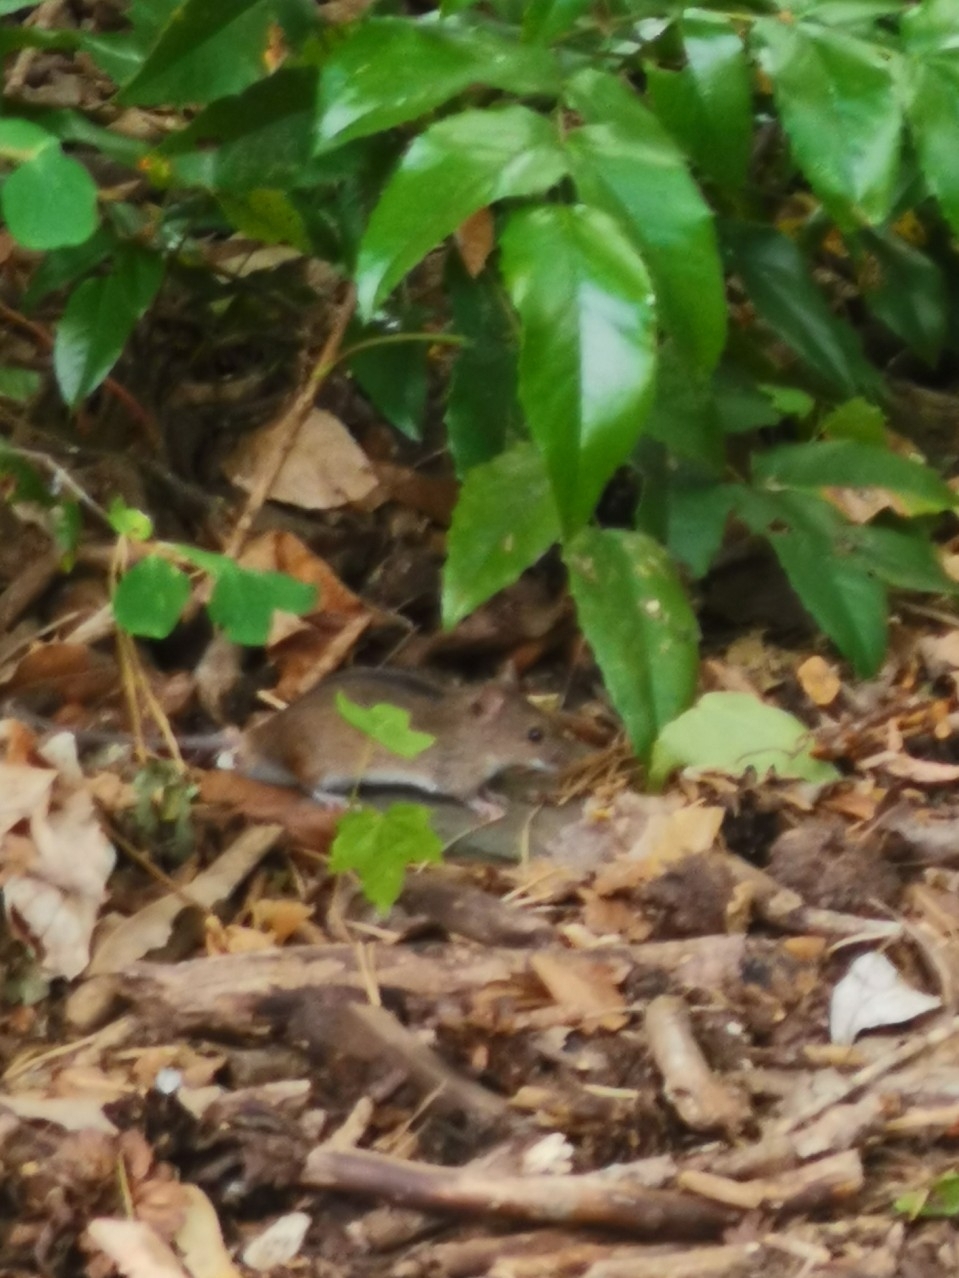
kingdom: Animalia
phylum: Chordata
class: Mammalia
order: Rodentia
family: Muridae
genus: Apodemus
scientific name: Apodemus agrarius
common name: Striped field mouse
